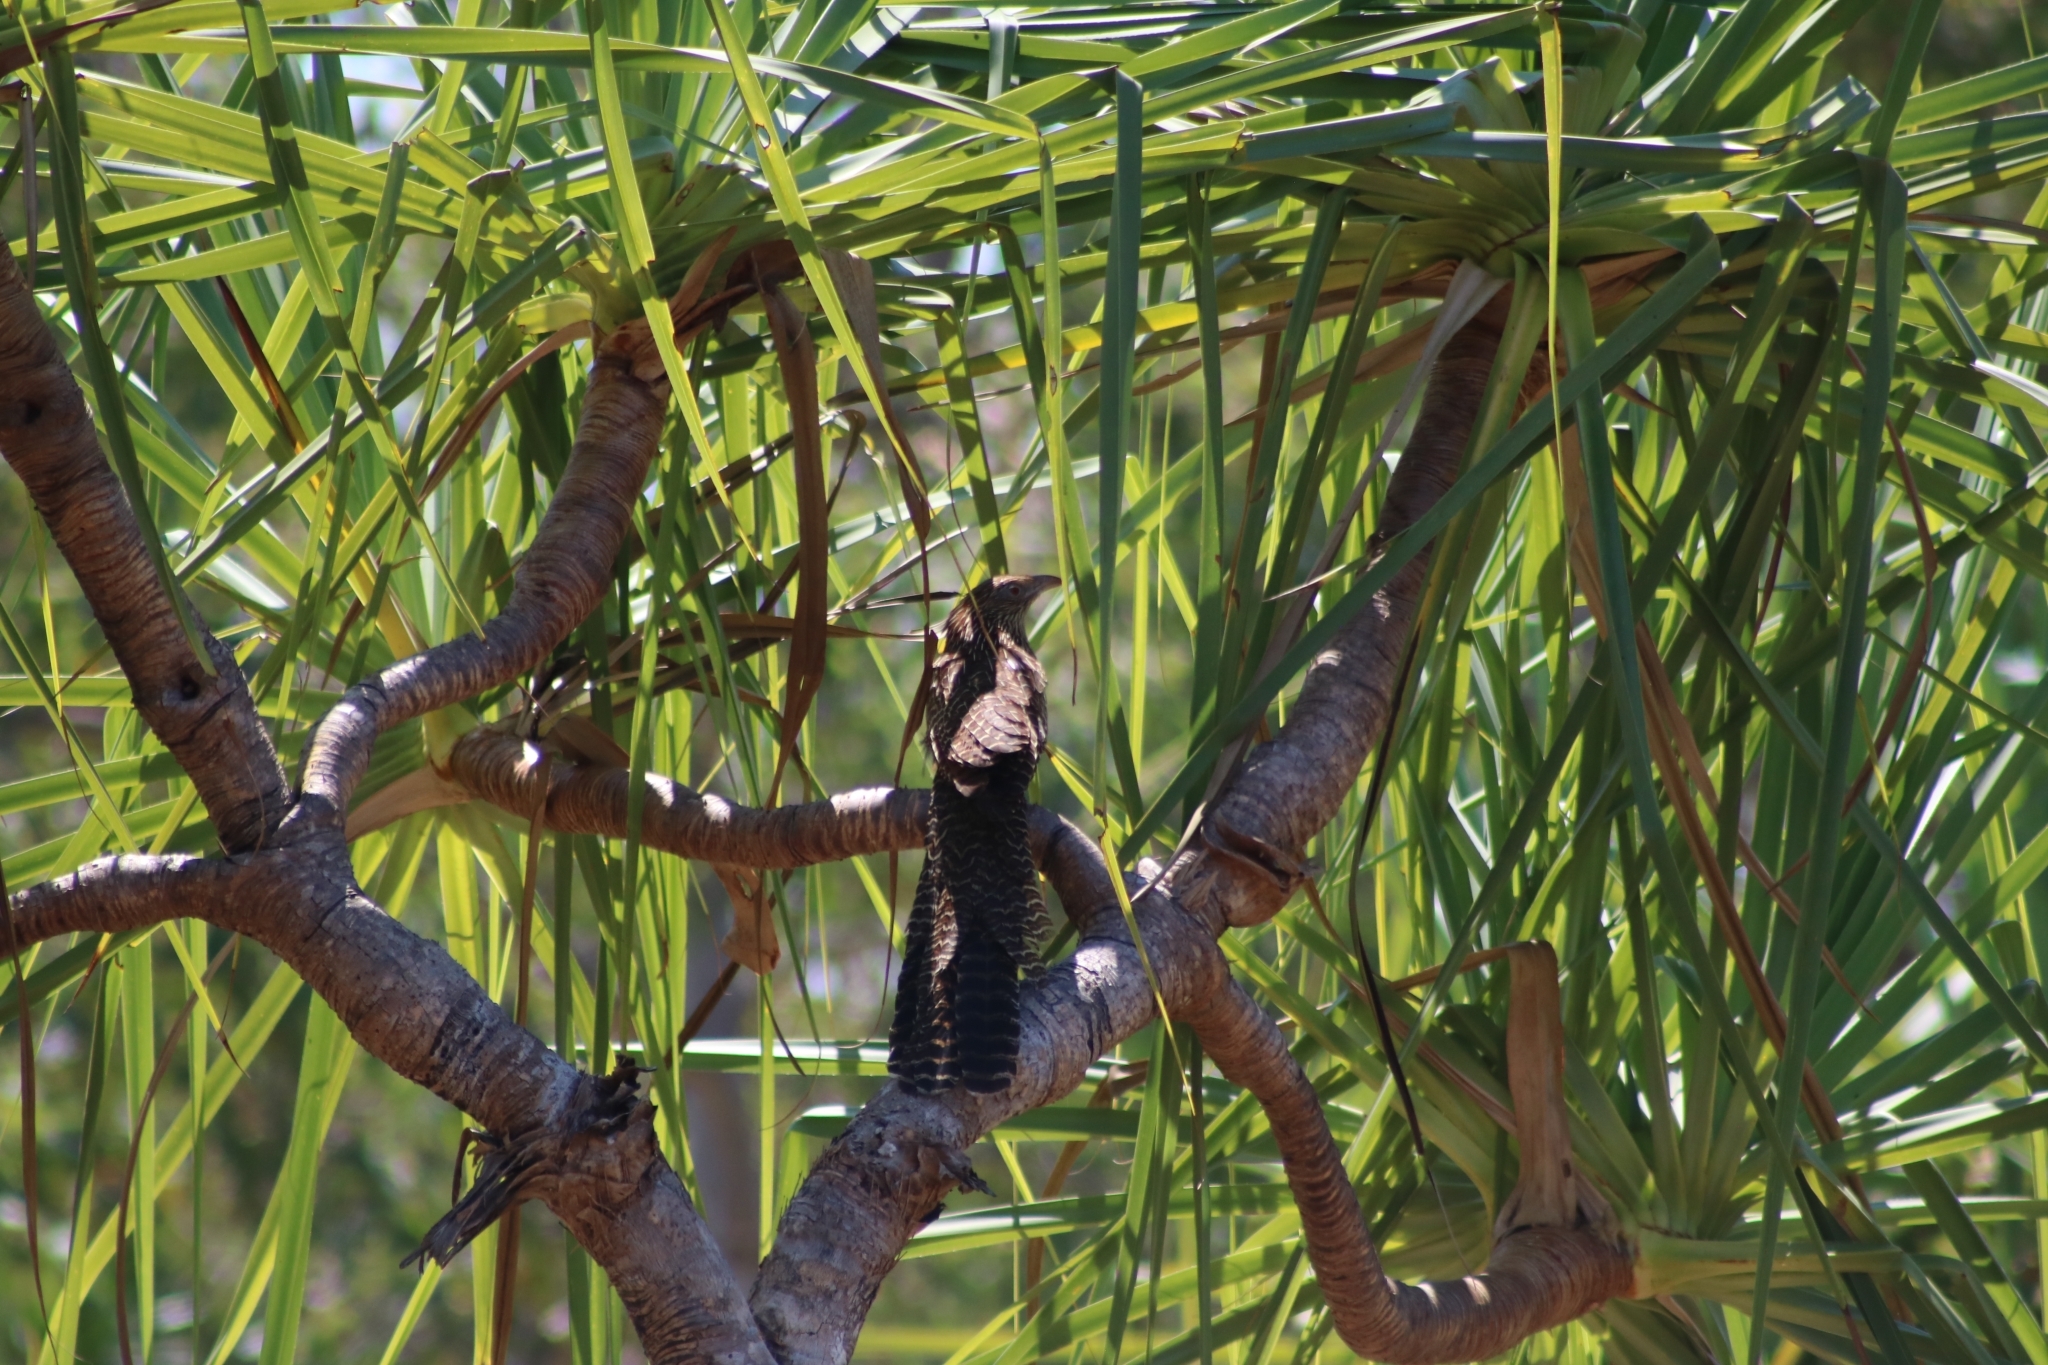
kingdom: Animalia
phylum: Chordata
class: Aves
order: Cuculiformes
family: Cuculidae
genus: Centropus
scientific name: Centropus phasianinus
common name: Pheasant coucal
